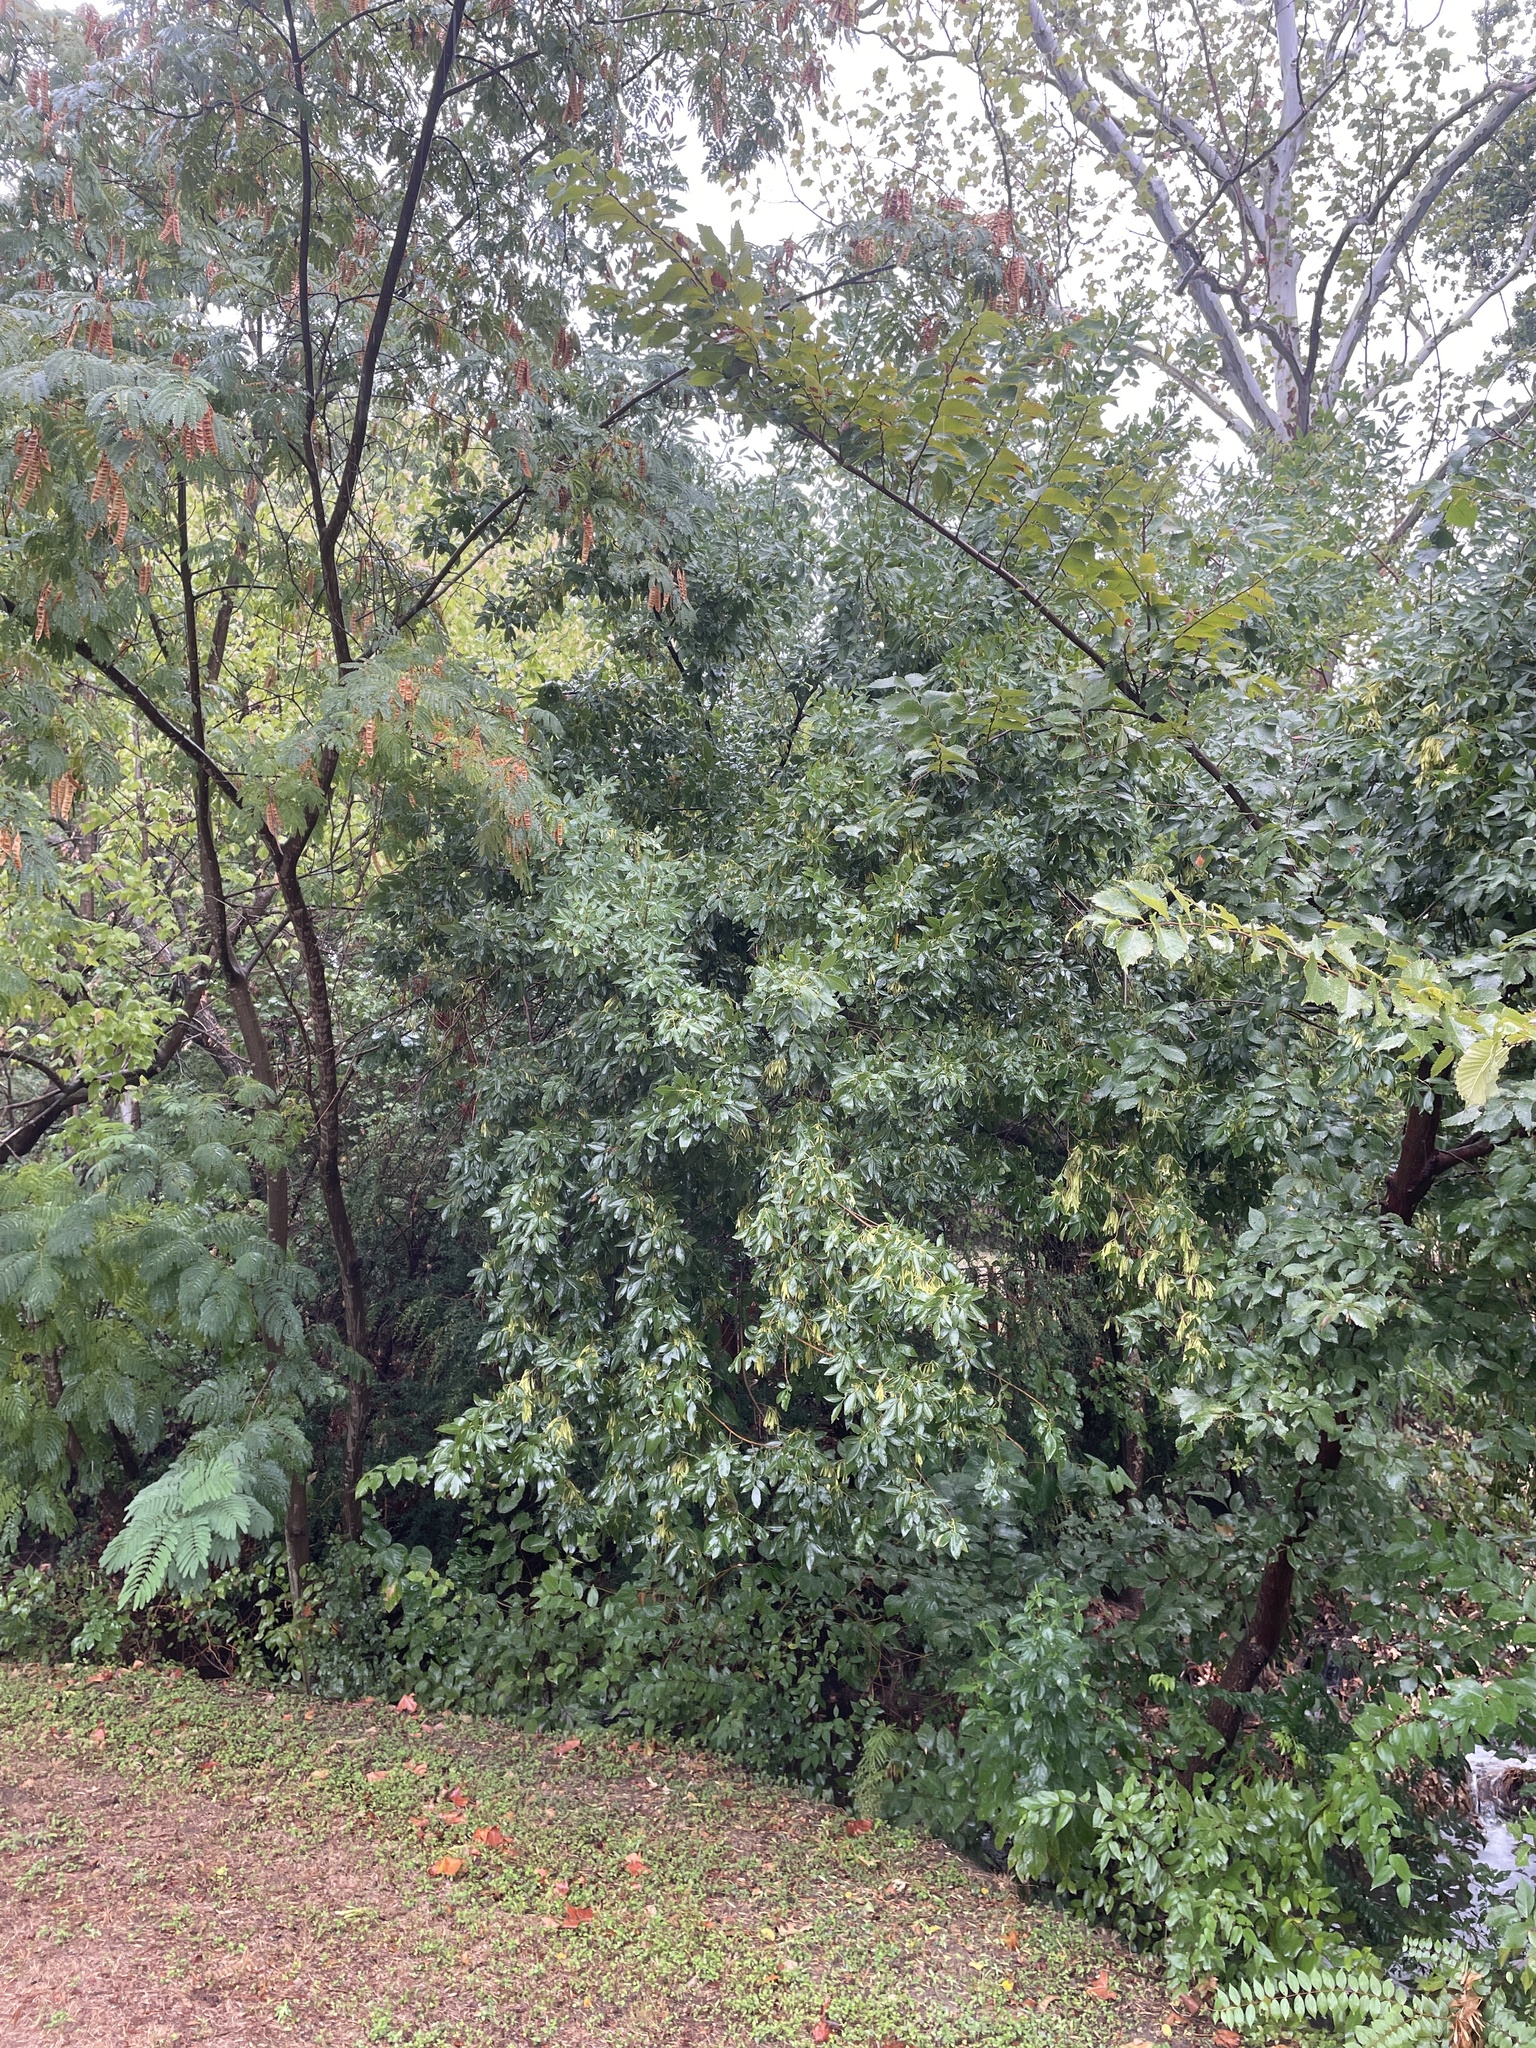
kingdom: Plantae
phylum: Tracheophyta
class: Magnoliopsida
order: Lamiales
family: Oleaceae
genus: Fraxinus
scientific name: Fraxinus pennsylvanica
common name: Green ash
